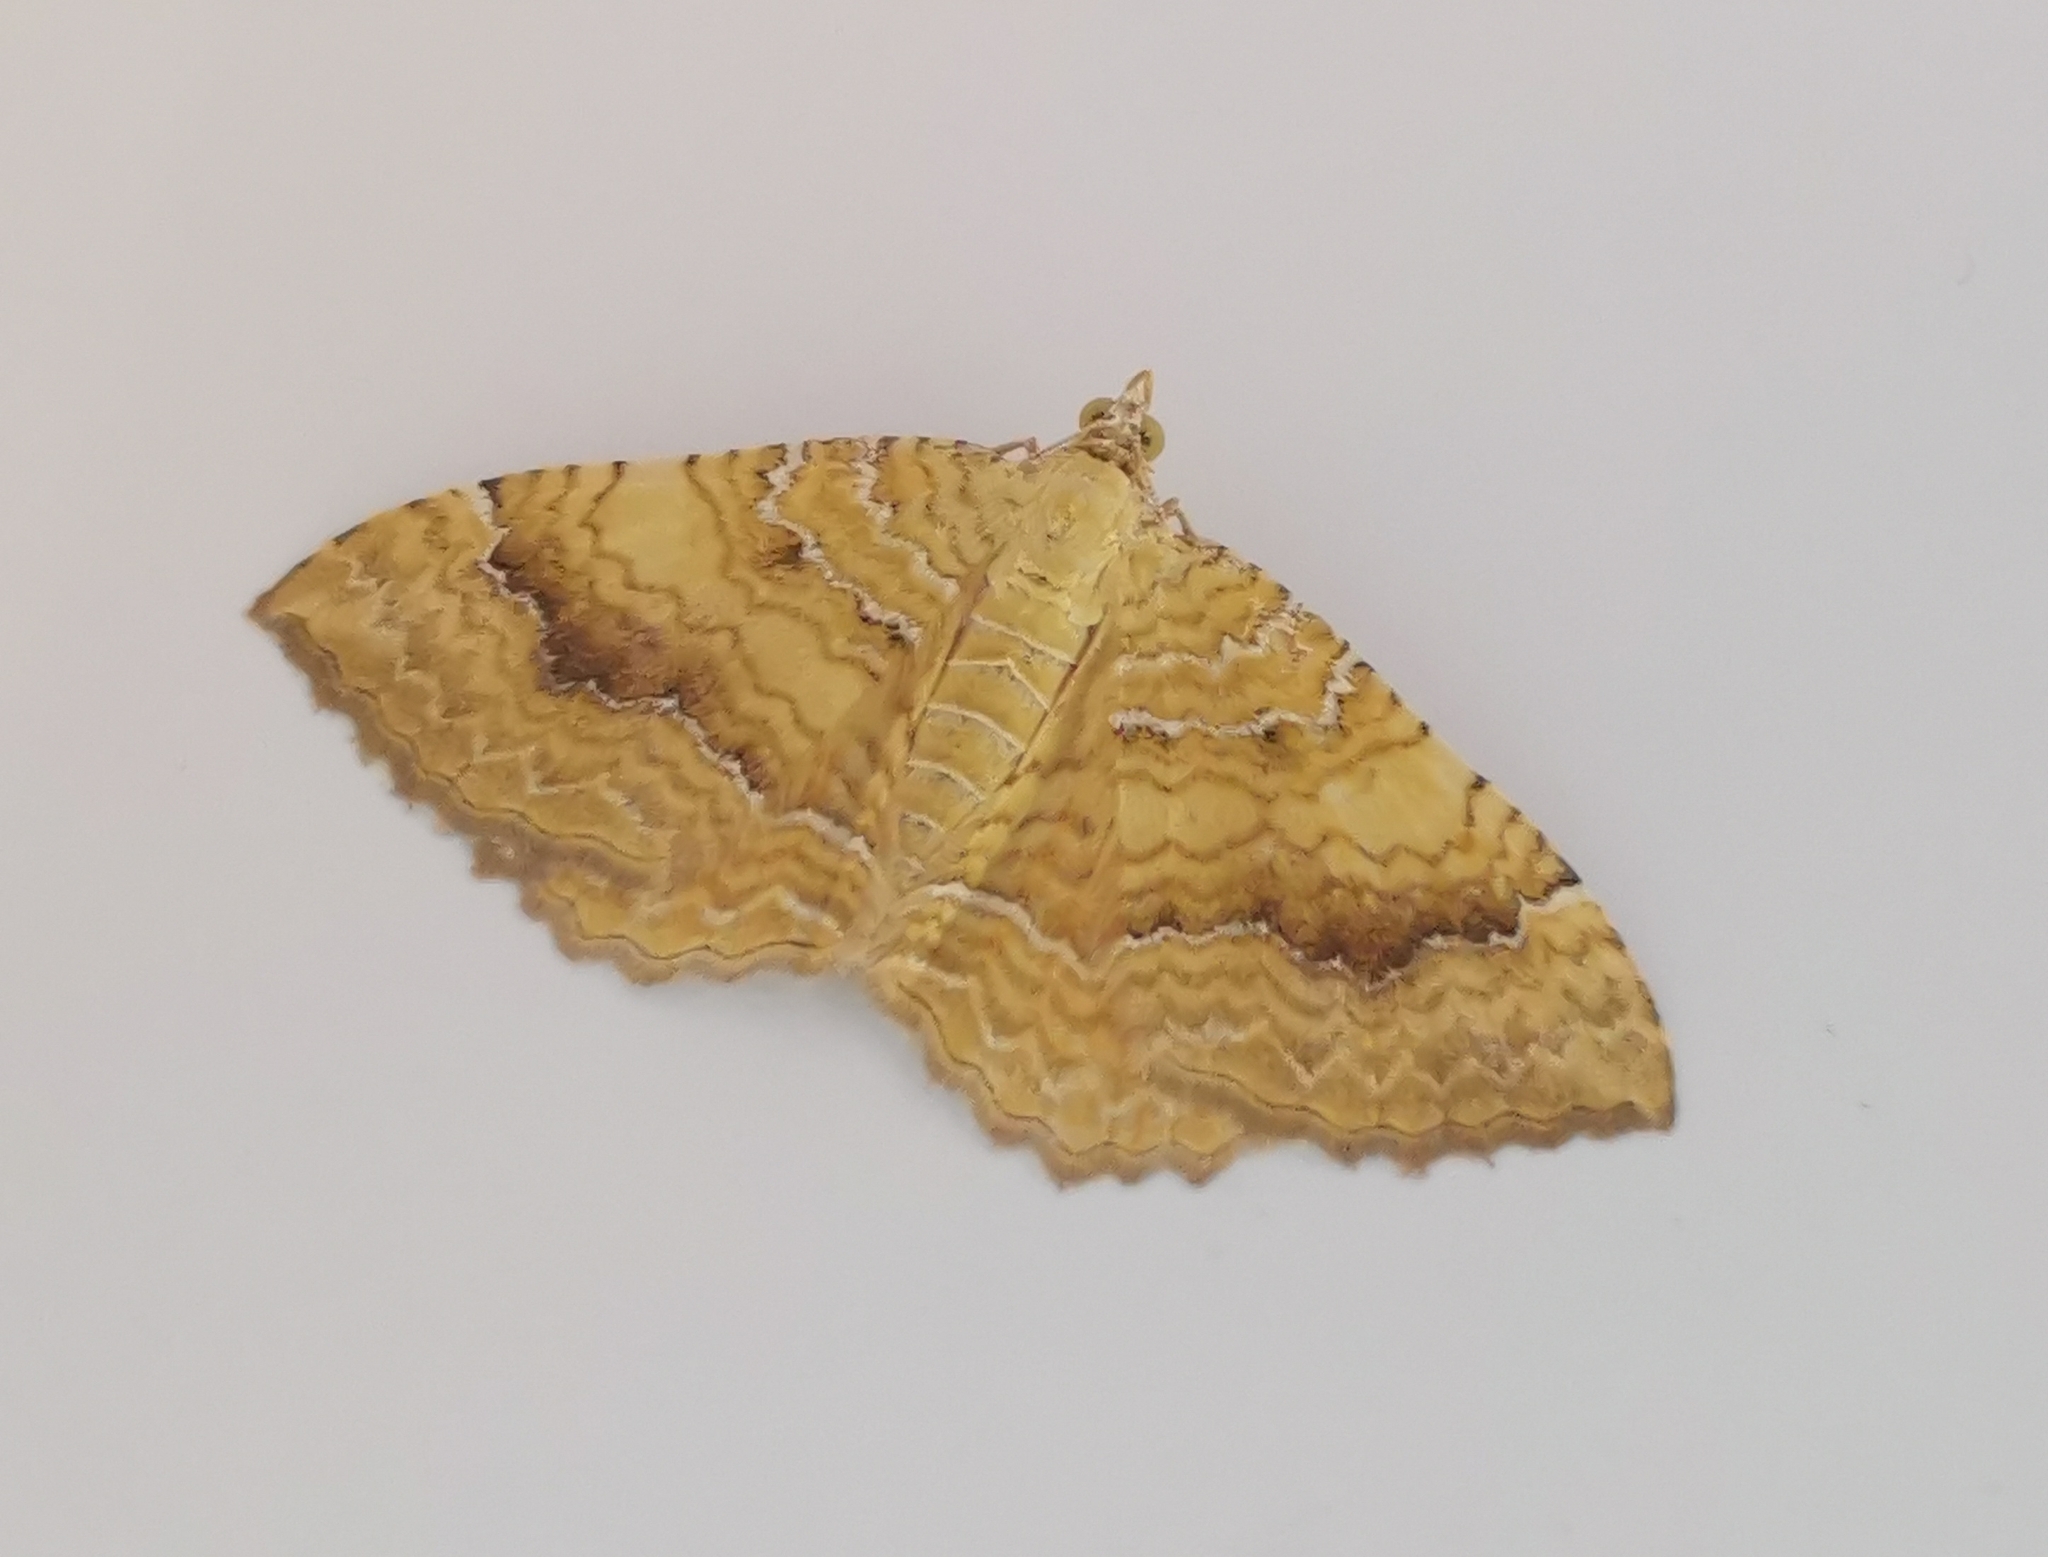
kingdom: Animalia
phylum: Arthropoda
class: Insecta
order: Lepidoptera
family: Geometridae
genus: Camptogramma
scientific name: Camptogramma bilineata
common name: Yellow shell
